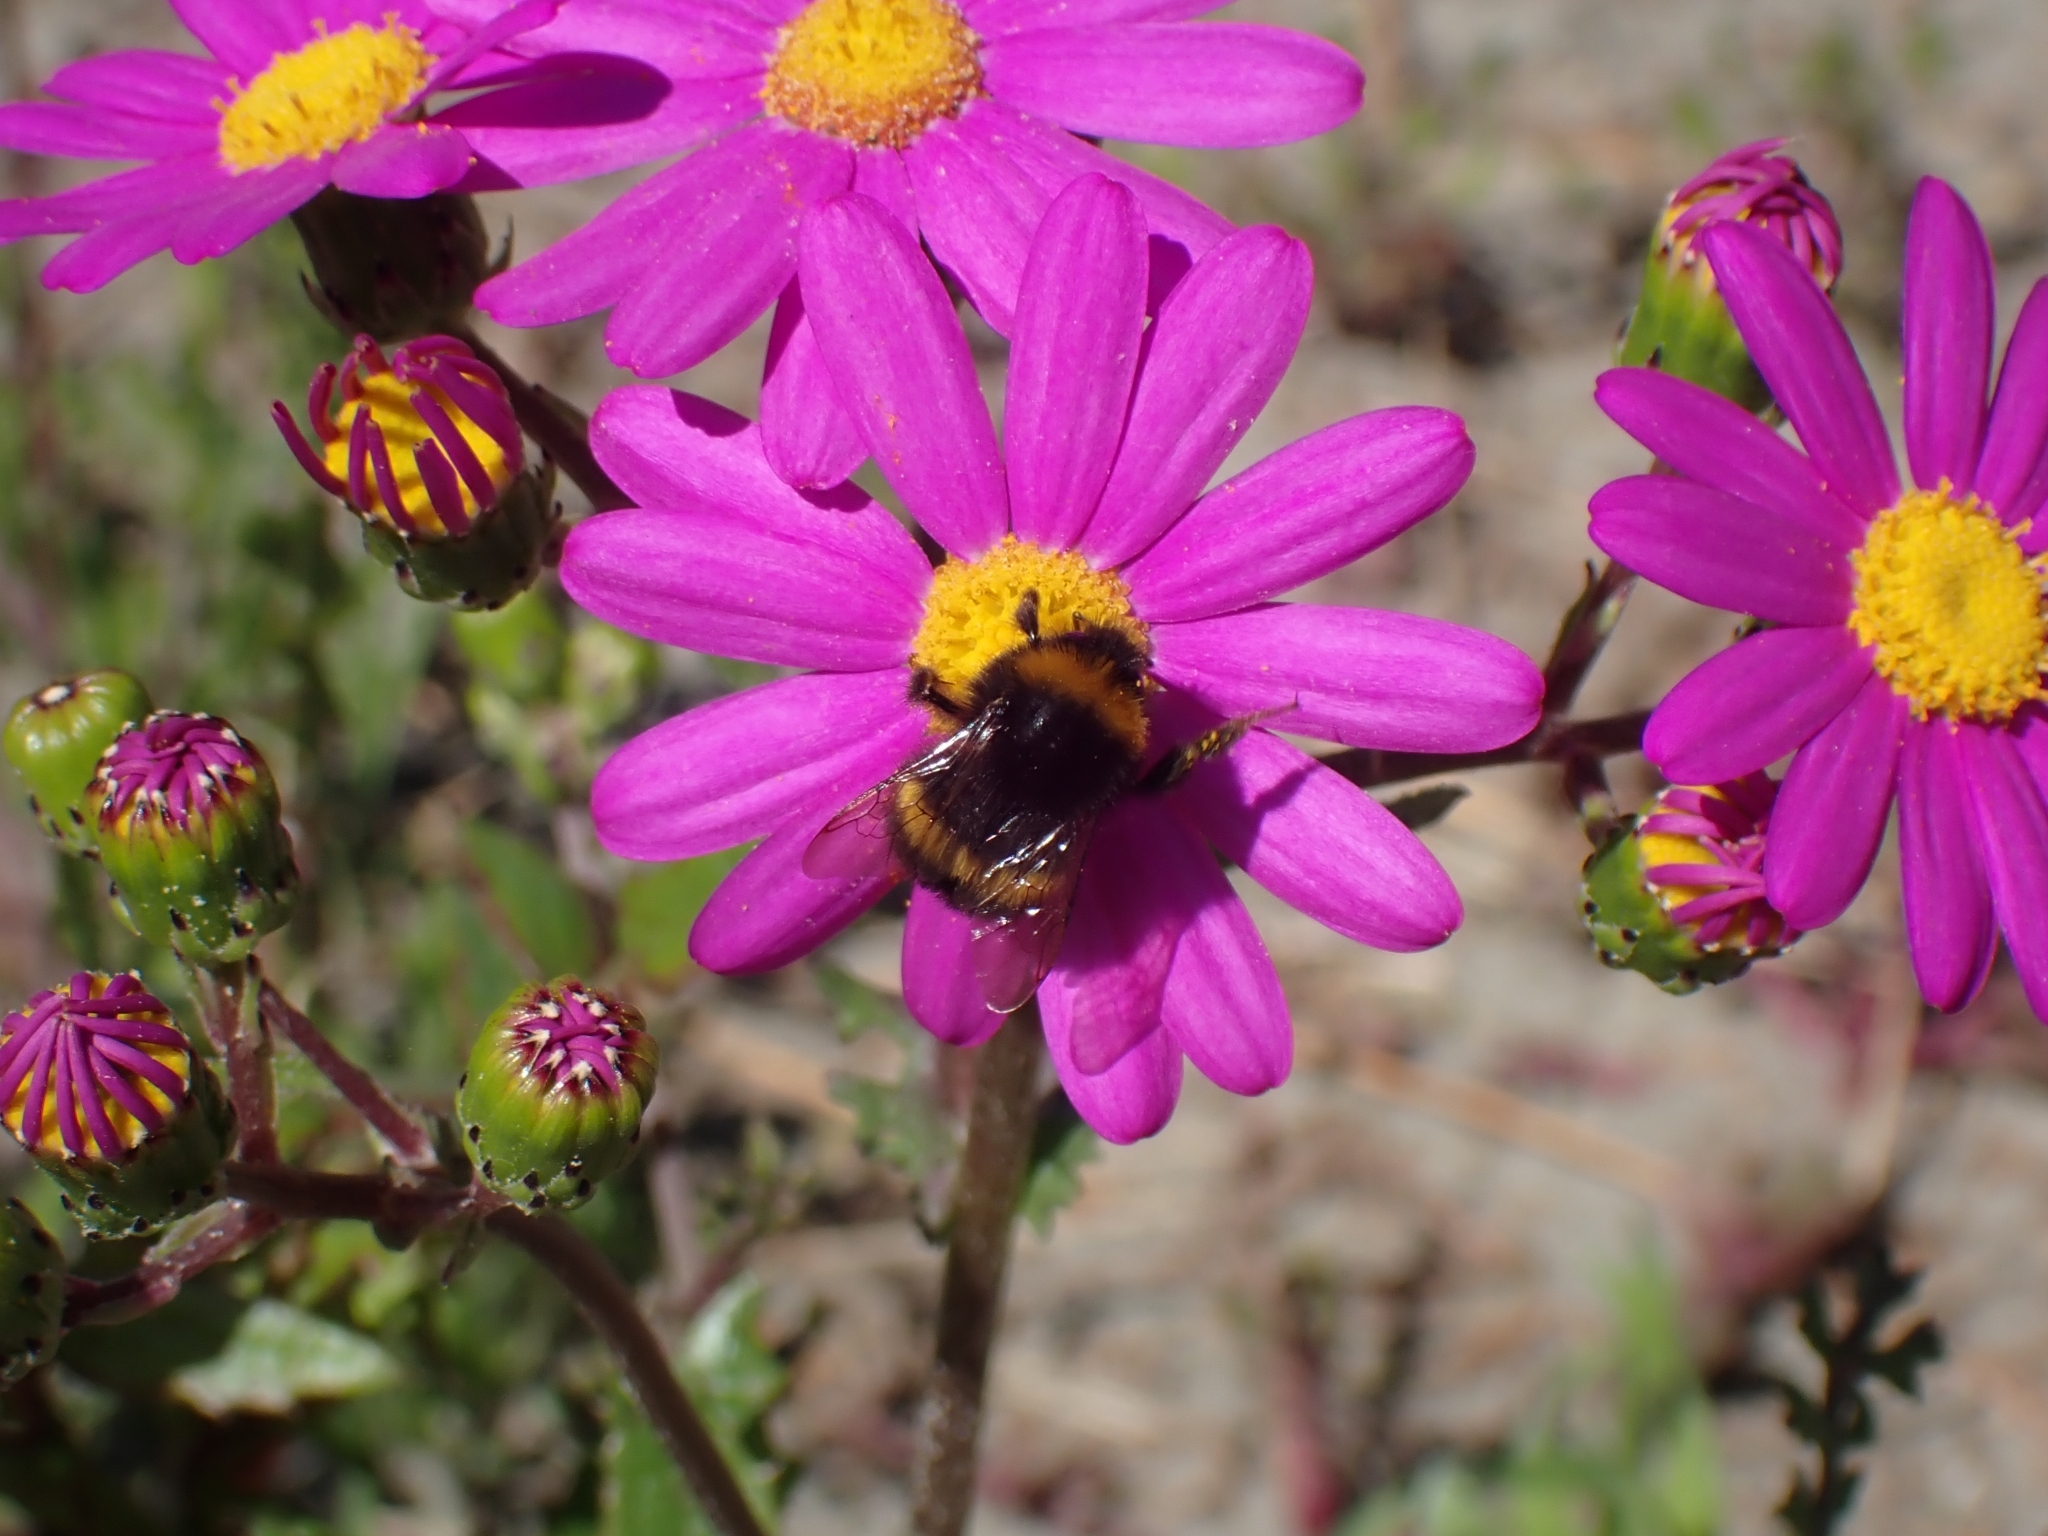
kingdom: Animalia
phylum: Arthropoda
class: Insecta
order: Hymenoptera
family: Apidae
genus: Bombus
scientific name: Bombus terrestris
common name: Buff-tailed bumblebee
